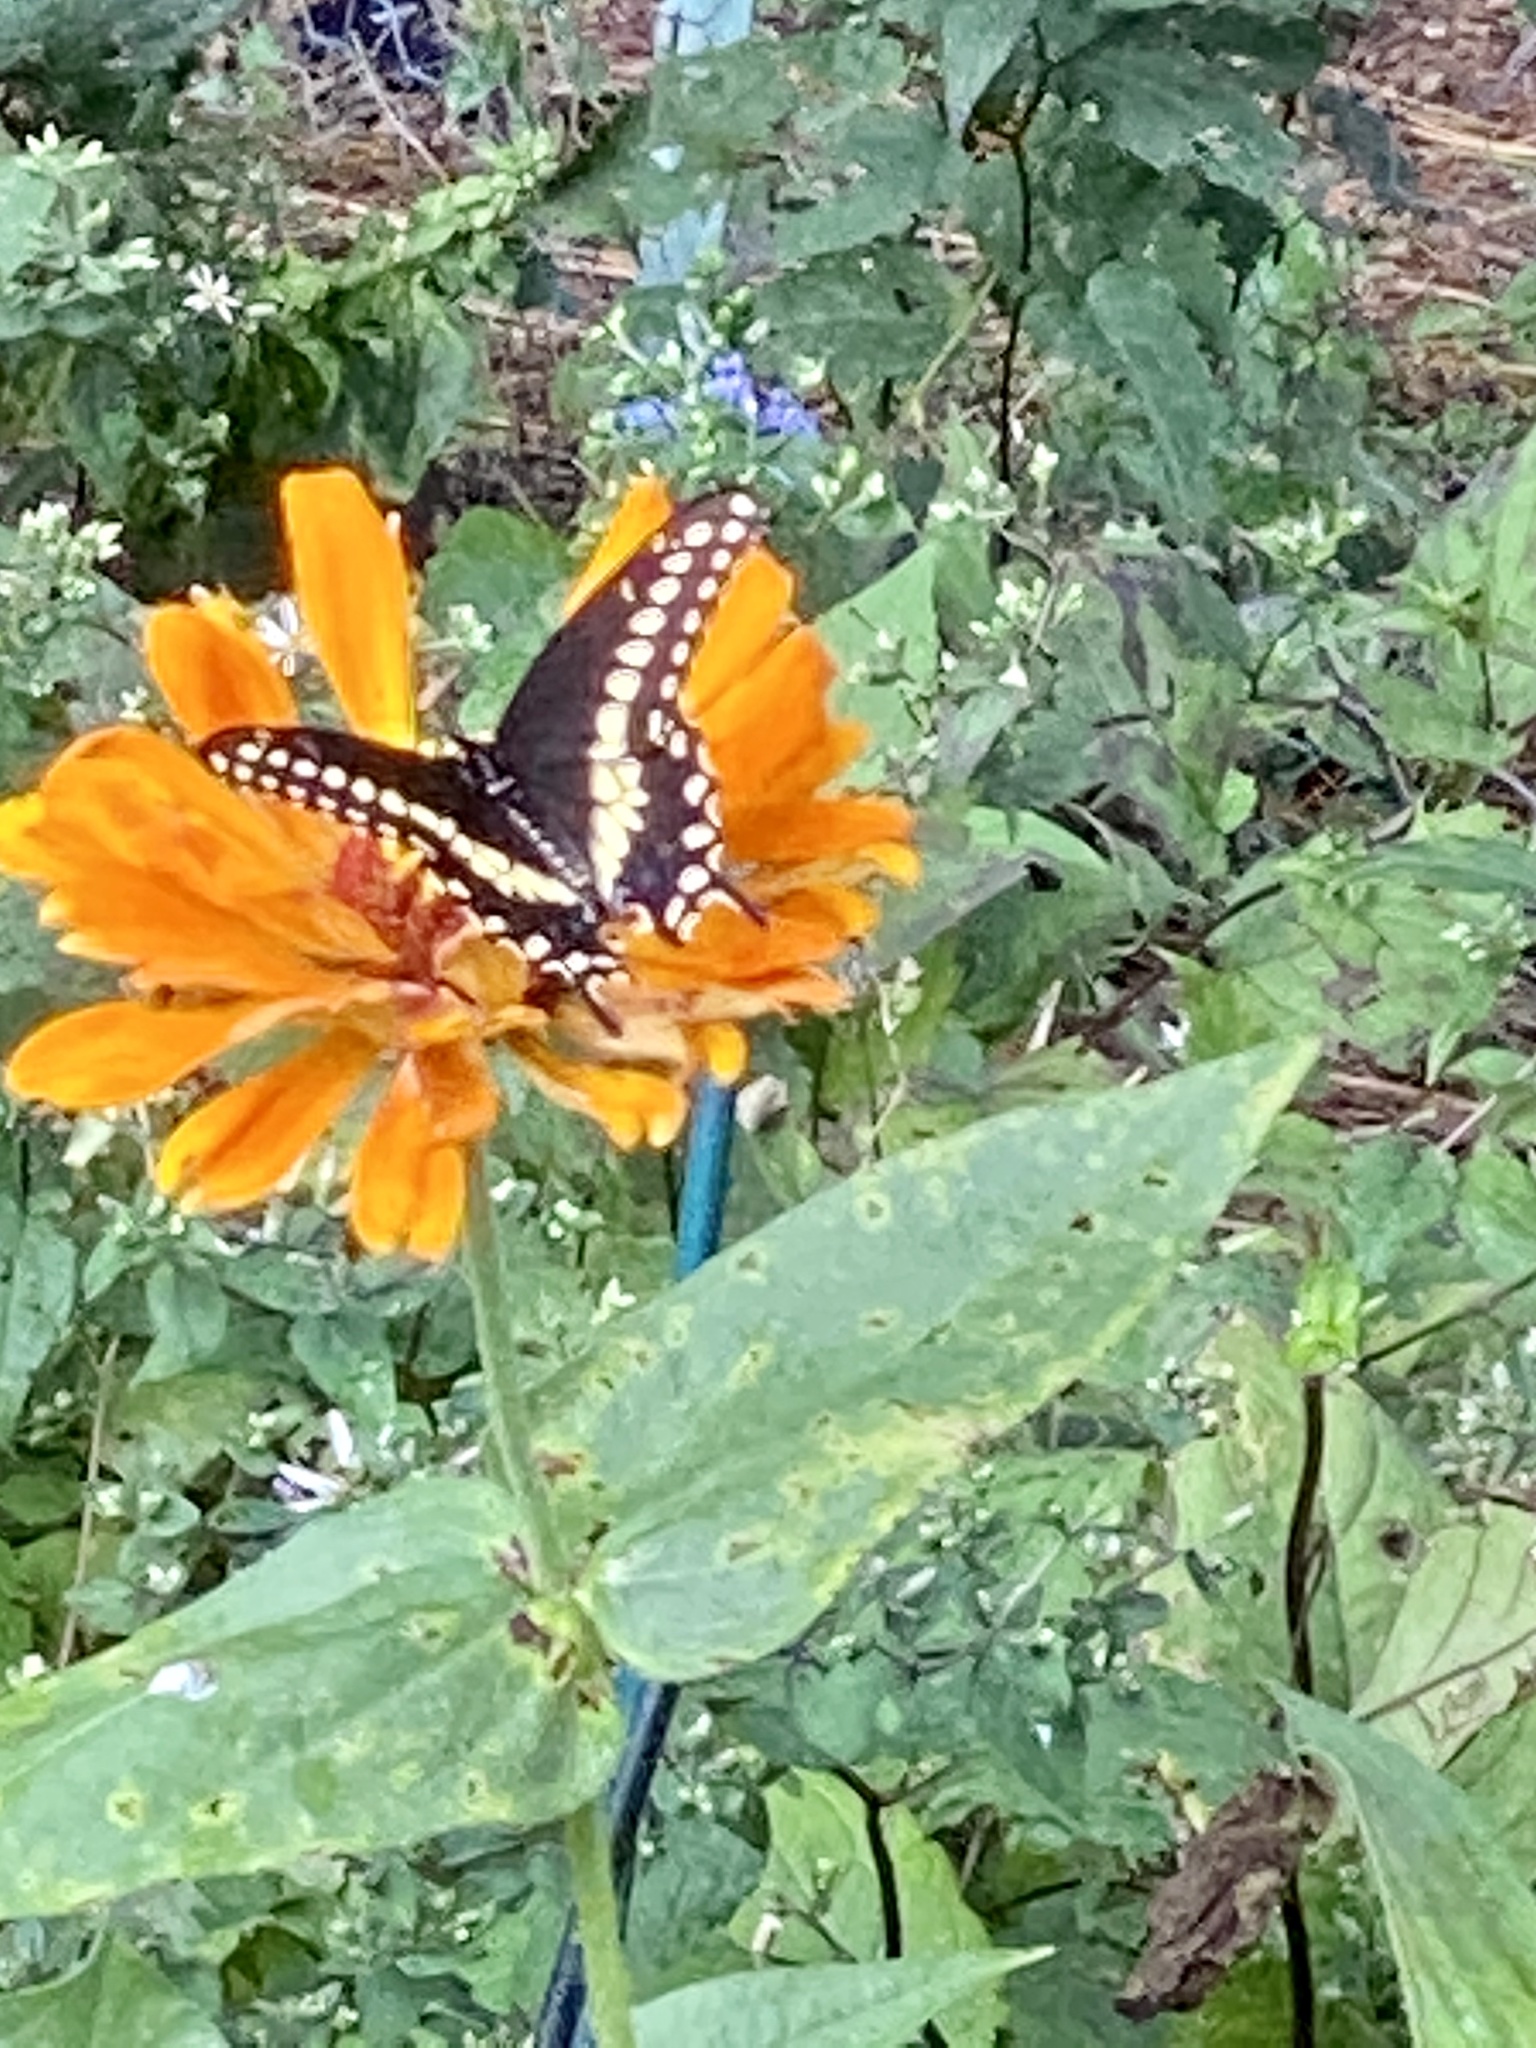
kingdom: Animalia
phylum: Arthropoda
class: Insecta
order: Lepidoptera
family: Papilionidae
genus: Papilio
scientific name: Papilio polyxenes
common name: Black swallowtail
